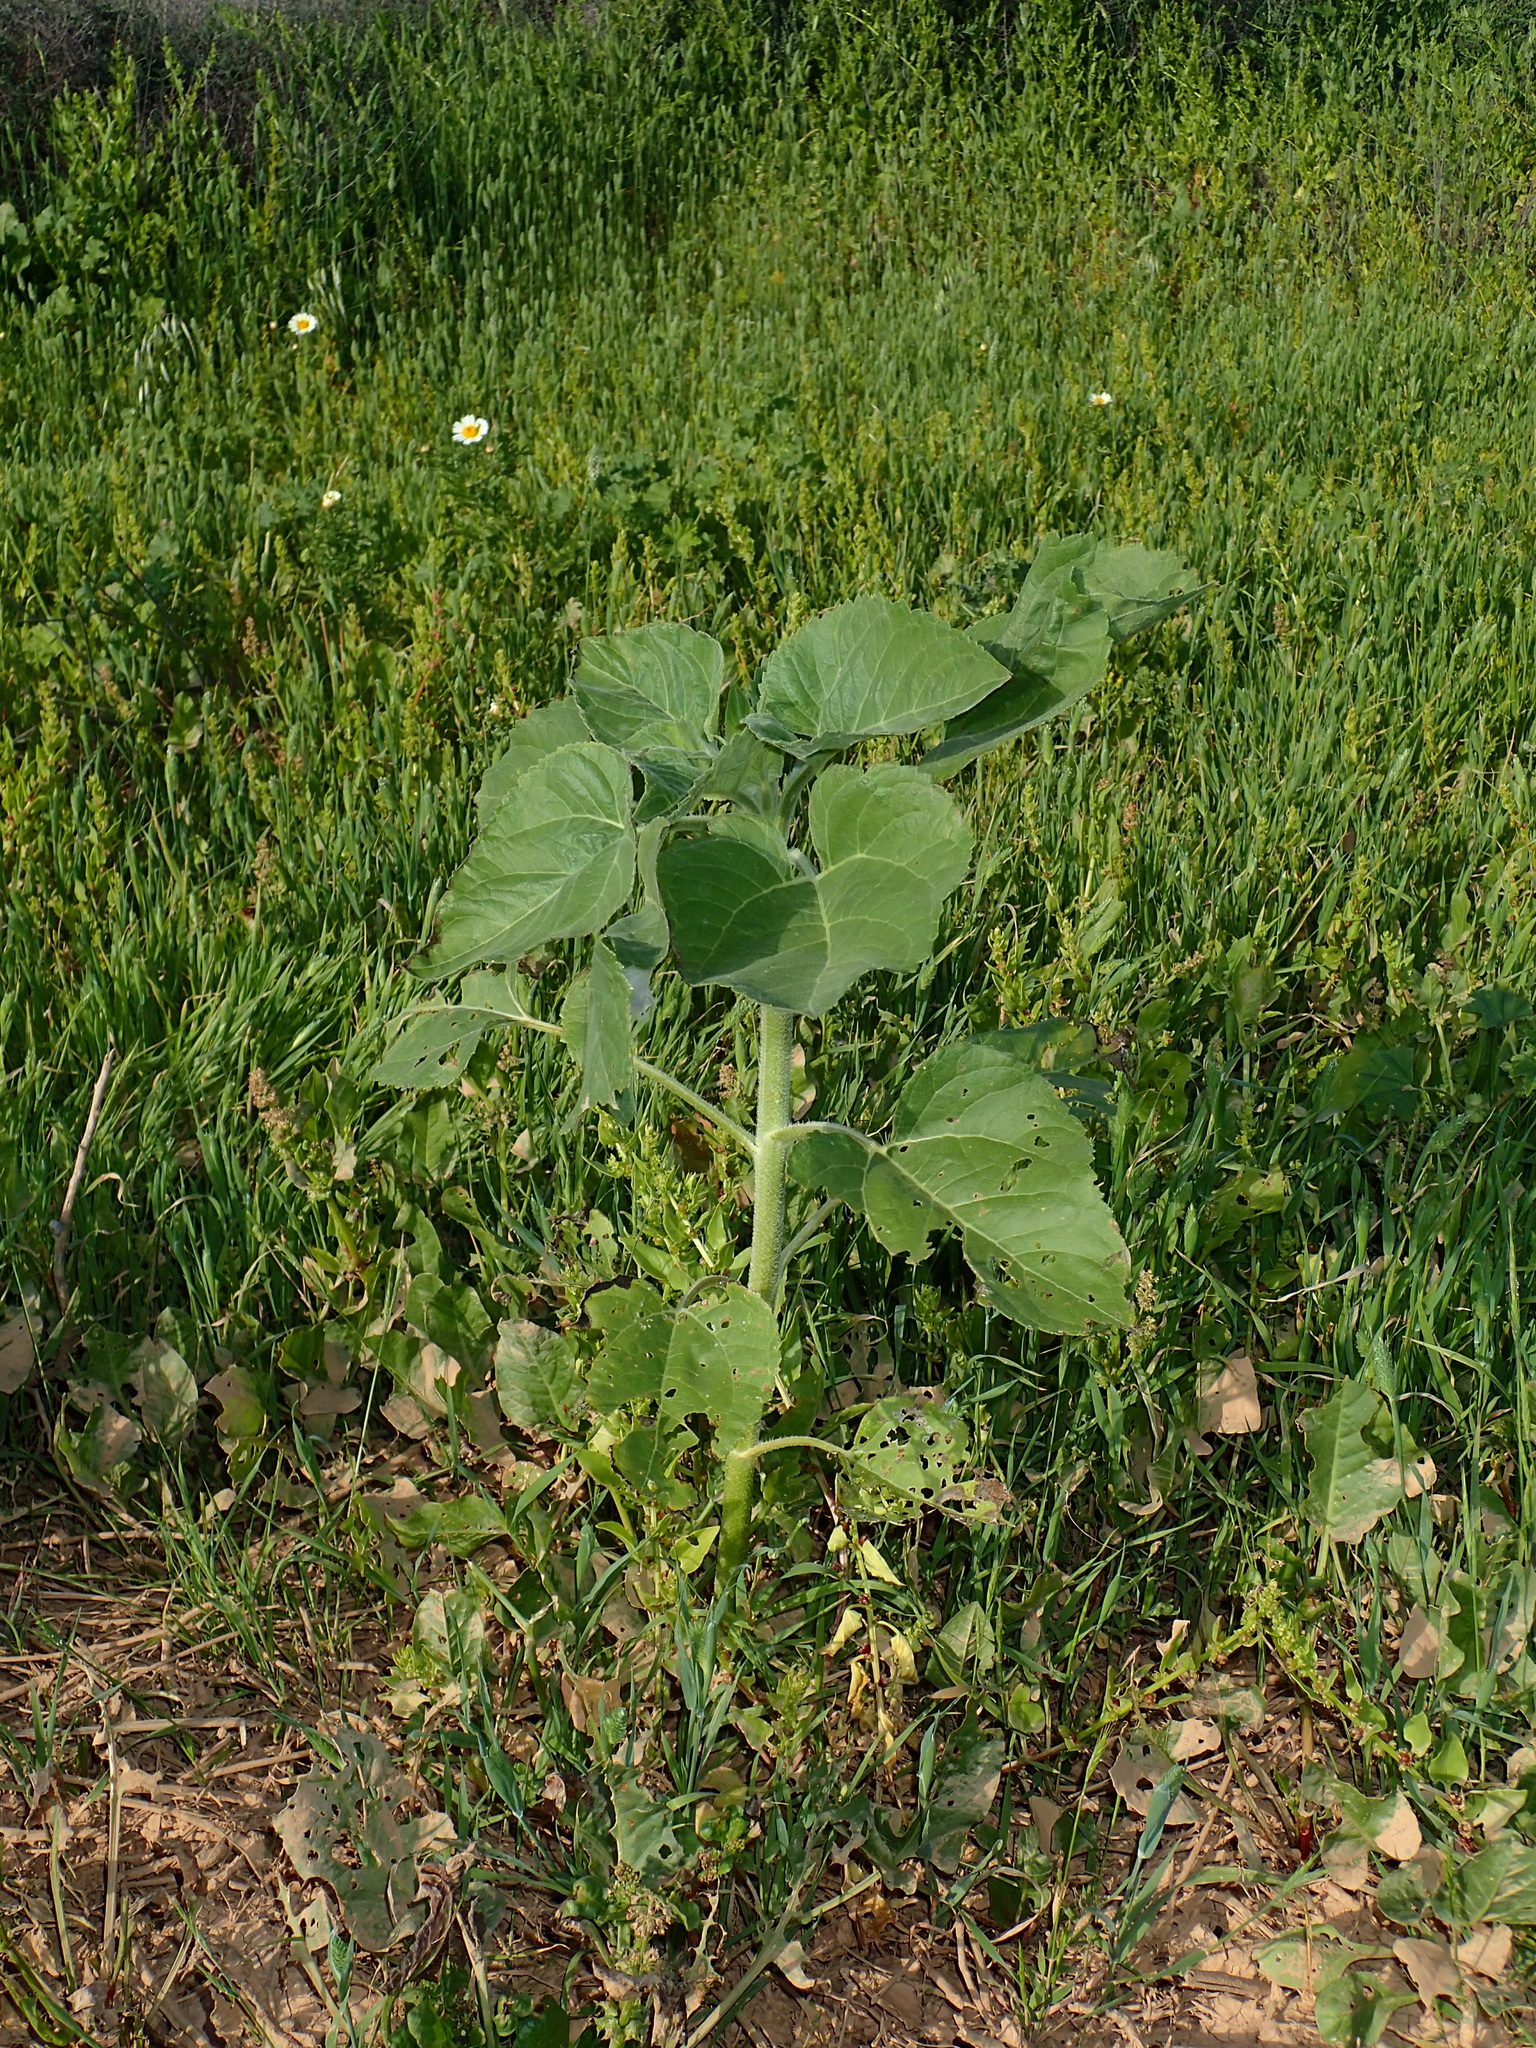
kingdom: Plantae
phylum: Tracheophyta
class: Magnoliopsida
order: Asterales
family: Asteraceae
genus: Helianthus
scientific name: Helianthus annuus
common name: Sunflower
